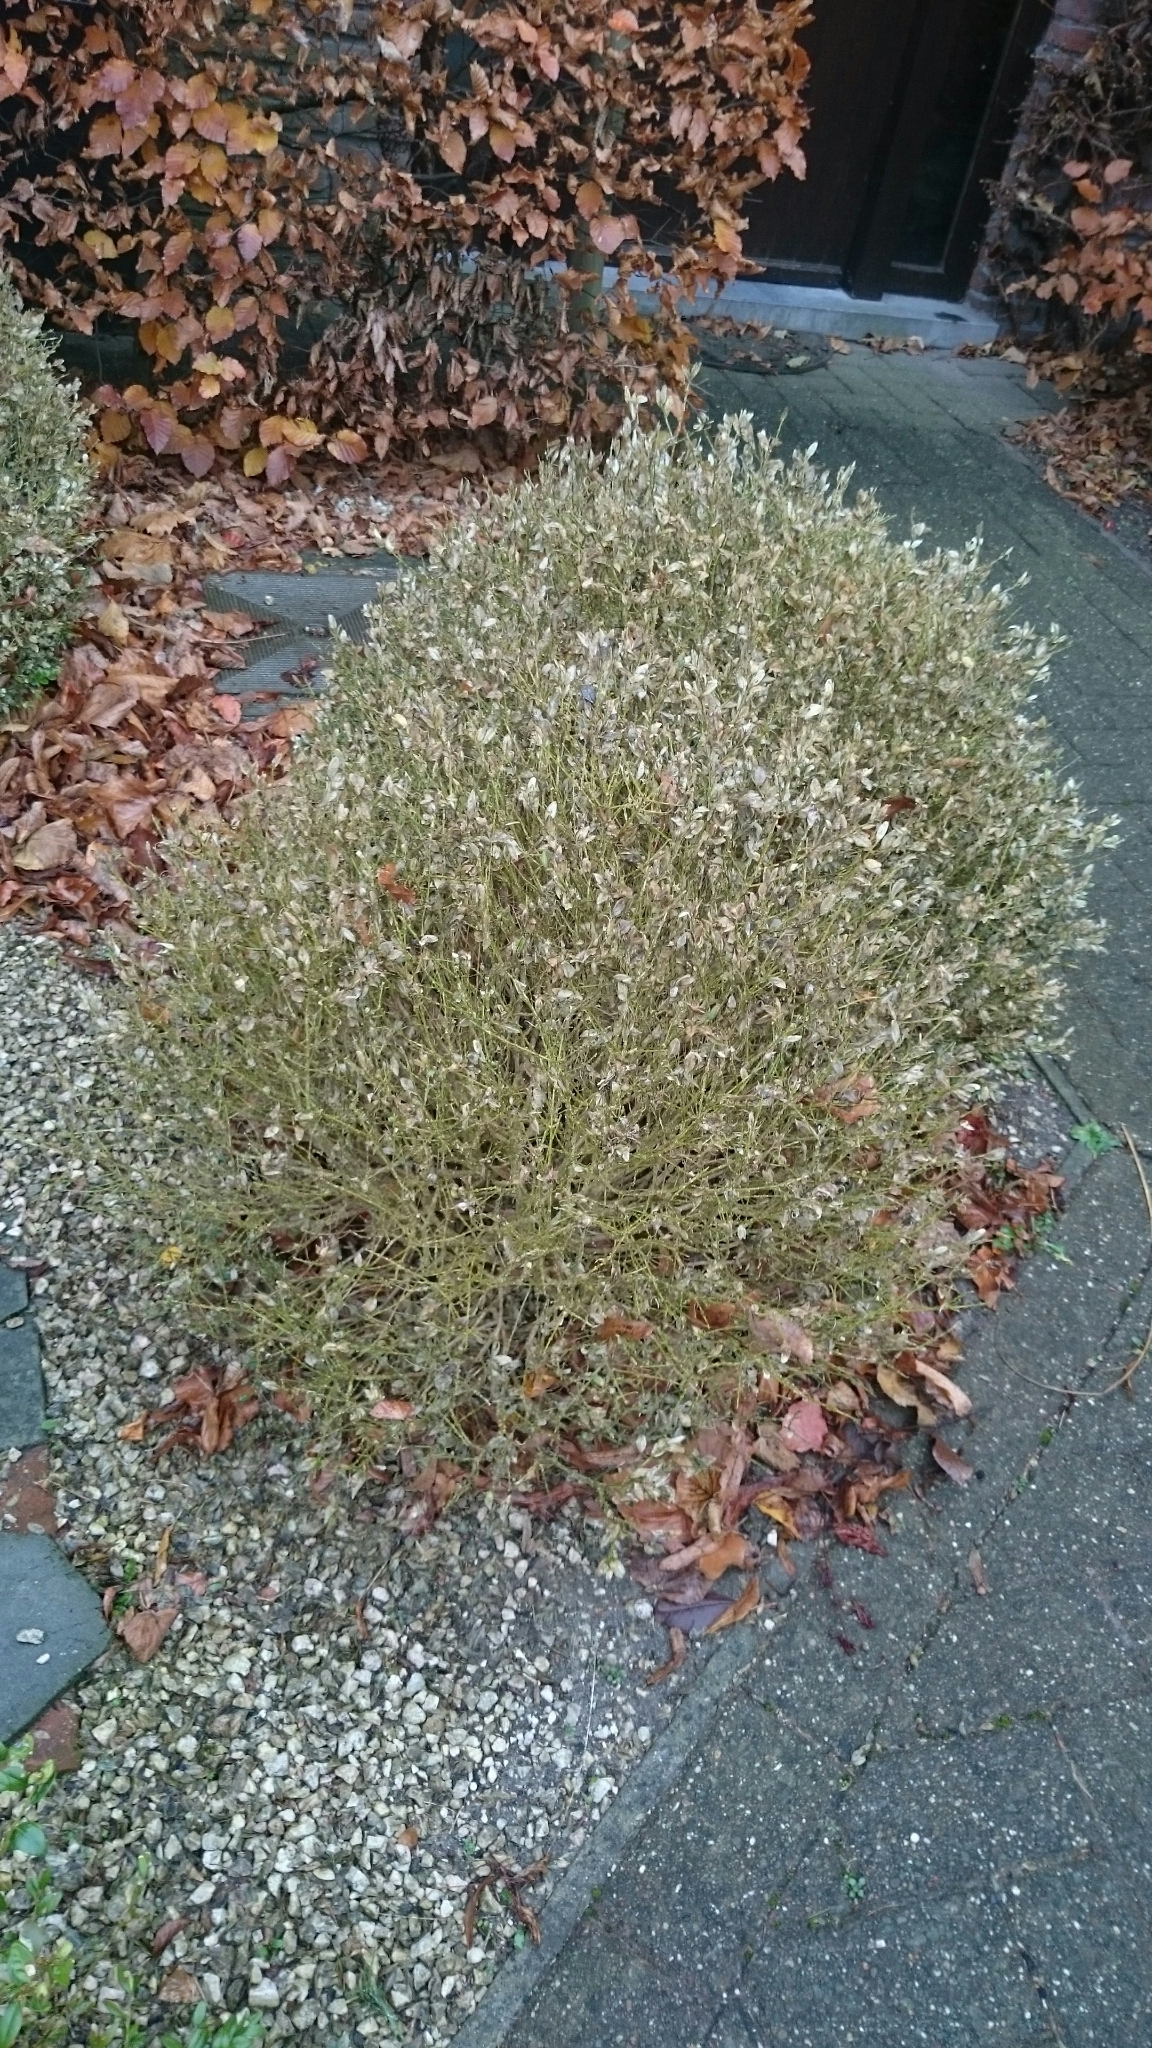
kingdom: Animalia
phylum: Arthropoda
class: Insecta
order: Lepidoptera
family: Crambidae
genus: Cydalima
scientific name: Cydalima perspectalis
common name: Box tree moth
